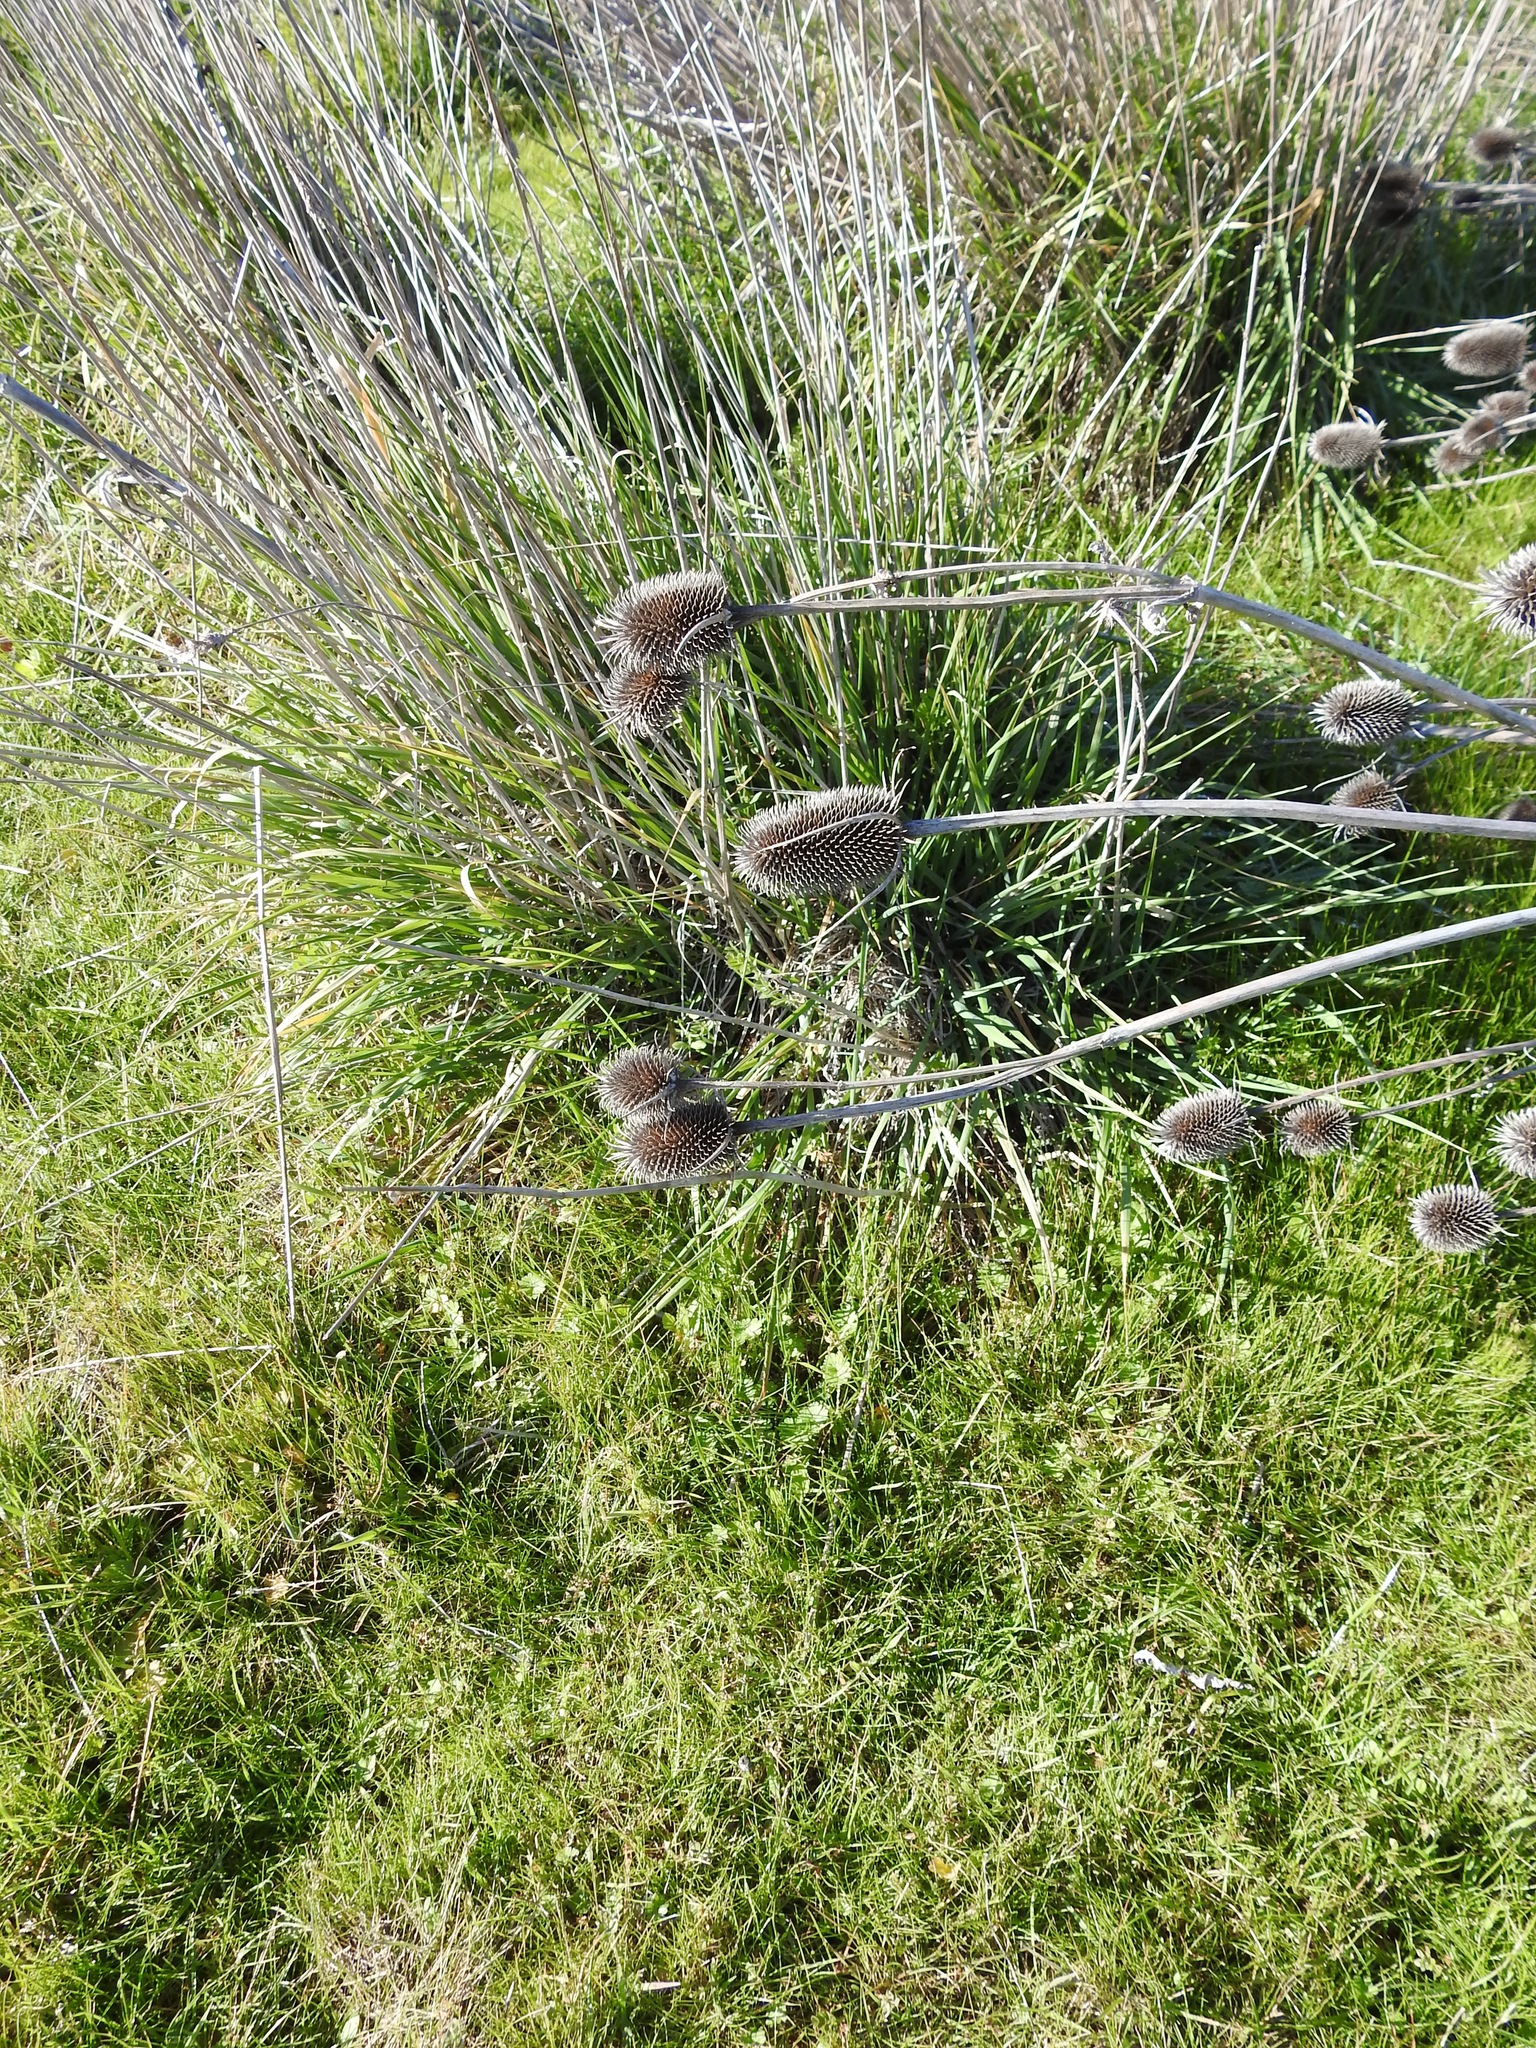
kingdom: Plantae
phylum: Tracheophyta
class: Magnoliopsida
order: Dipsacales
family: Caprifoliaceae
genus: Dipsacus
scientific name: Dipsacus sativus
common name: Fuller's teasel
